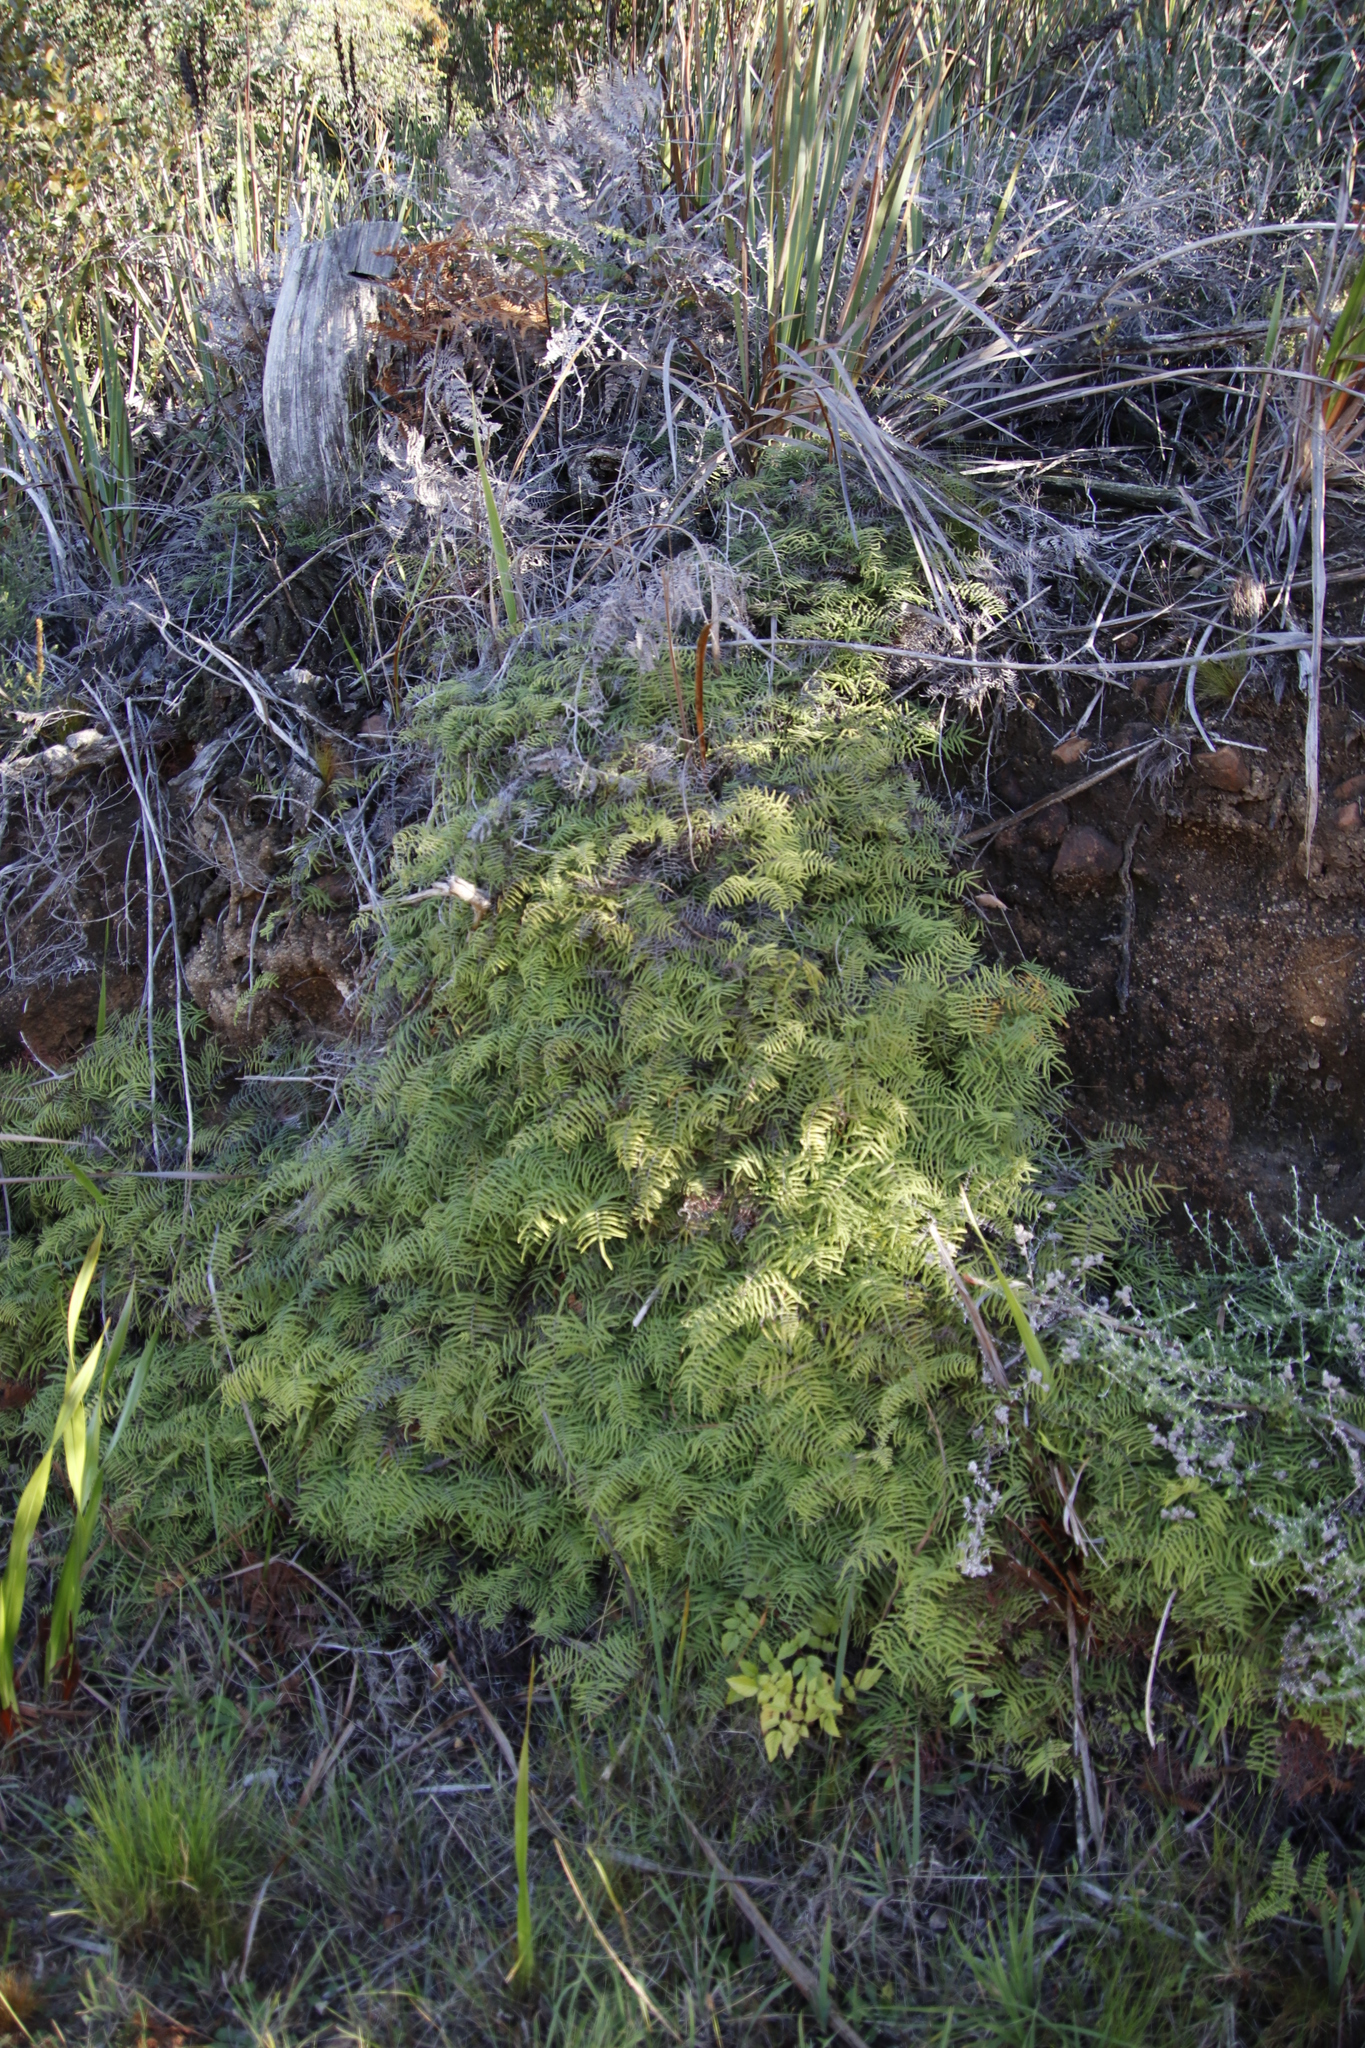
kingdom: Plantae
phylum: Tracheophyta
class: Polypodiopsida
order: Gleicheniales
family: Gleicheniaceae
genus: Gleichenia
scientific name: Gleichenia polypodioides
